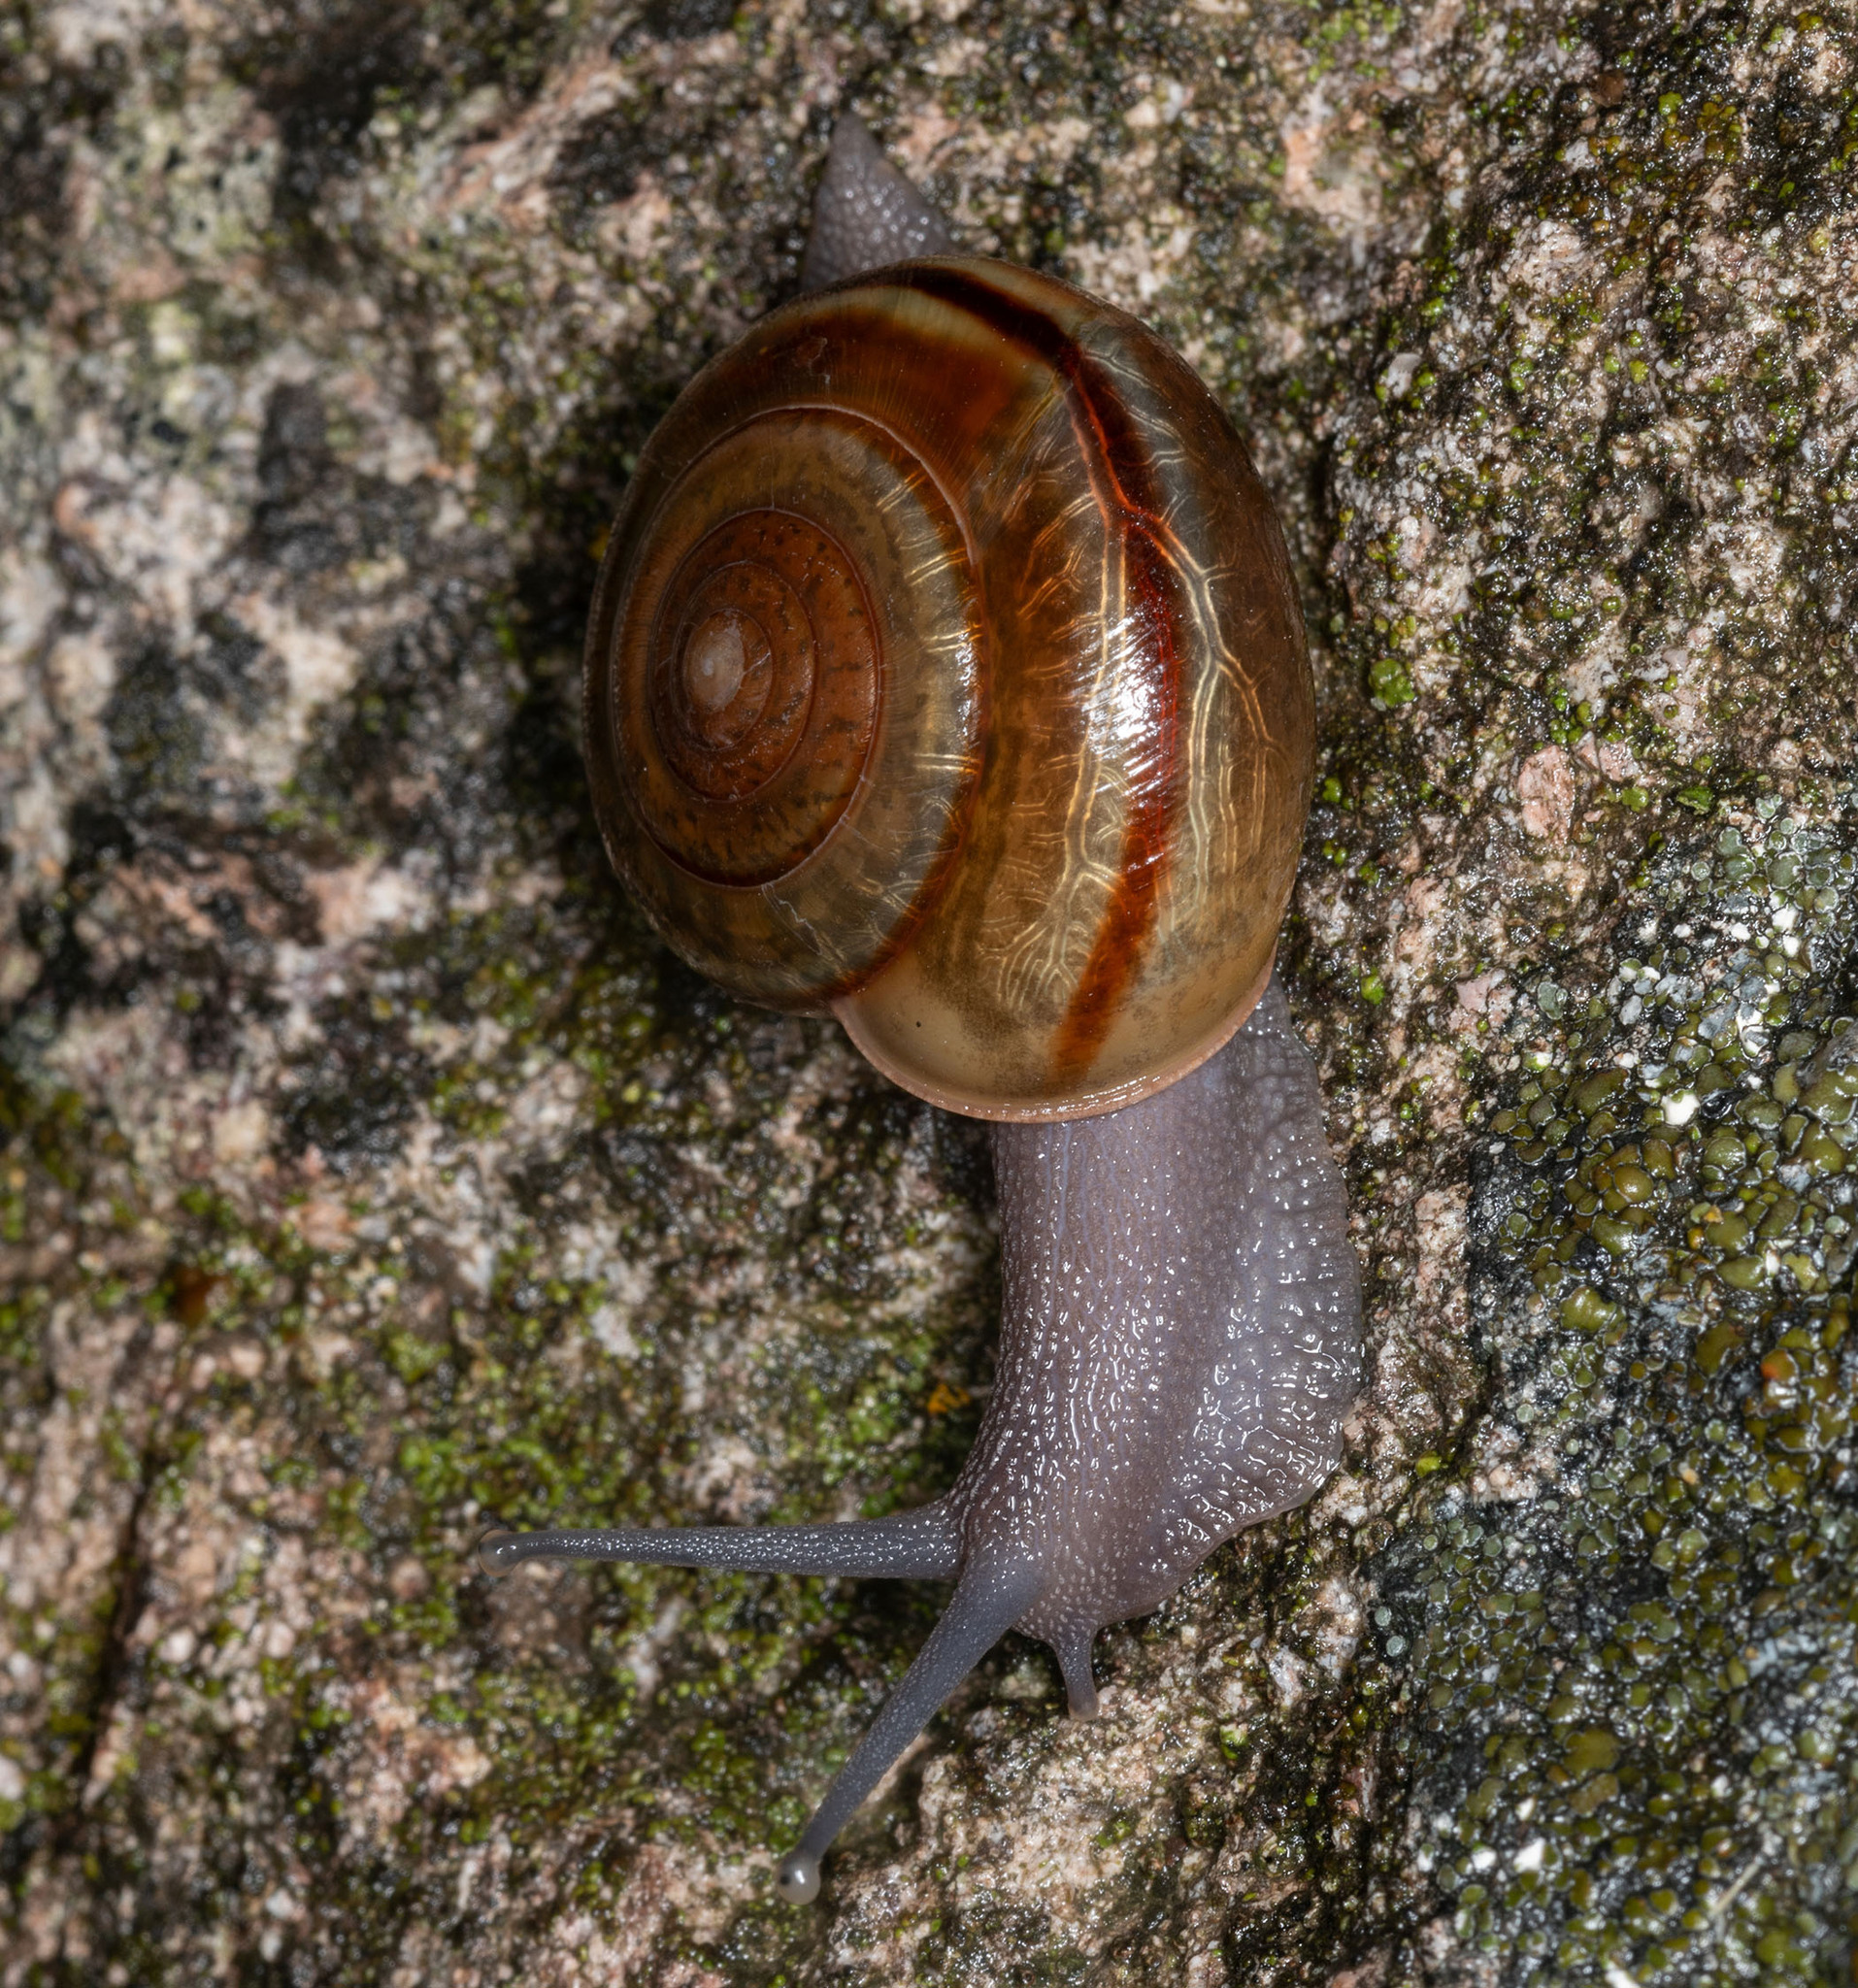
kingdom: Animalia
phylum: Mollusca
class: Gastropoda
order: Stylommatophora
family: Xanthonychidae
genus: Helminthoglypta
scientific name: Helminthoglypta benitoensis
